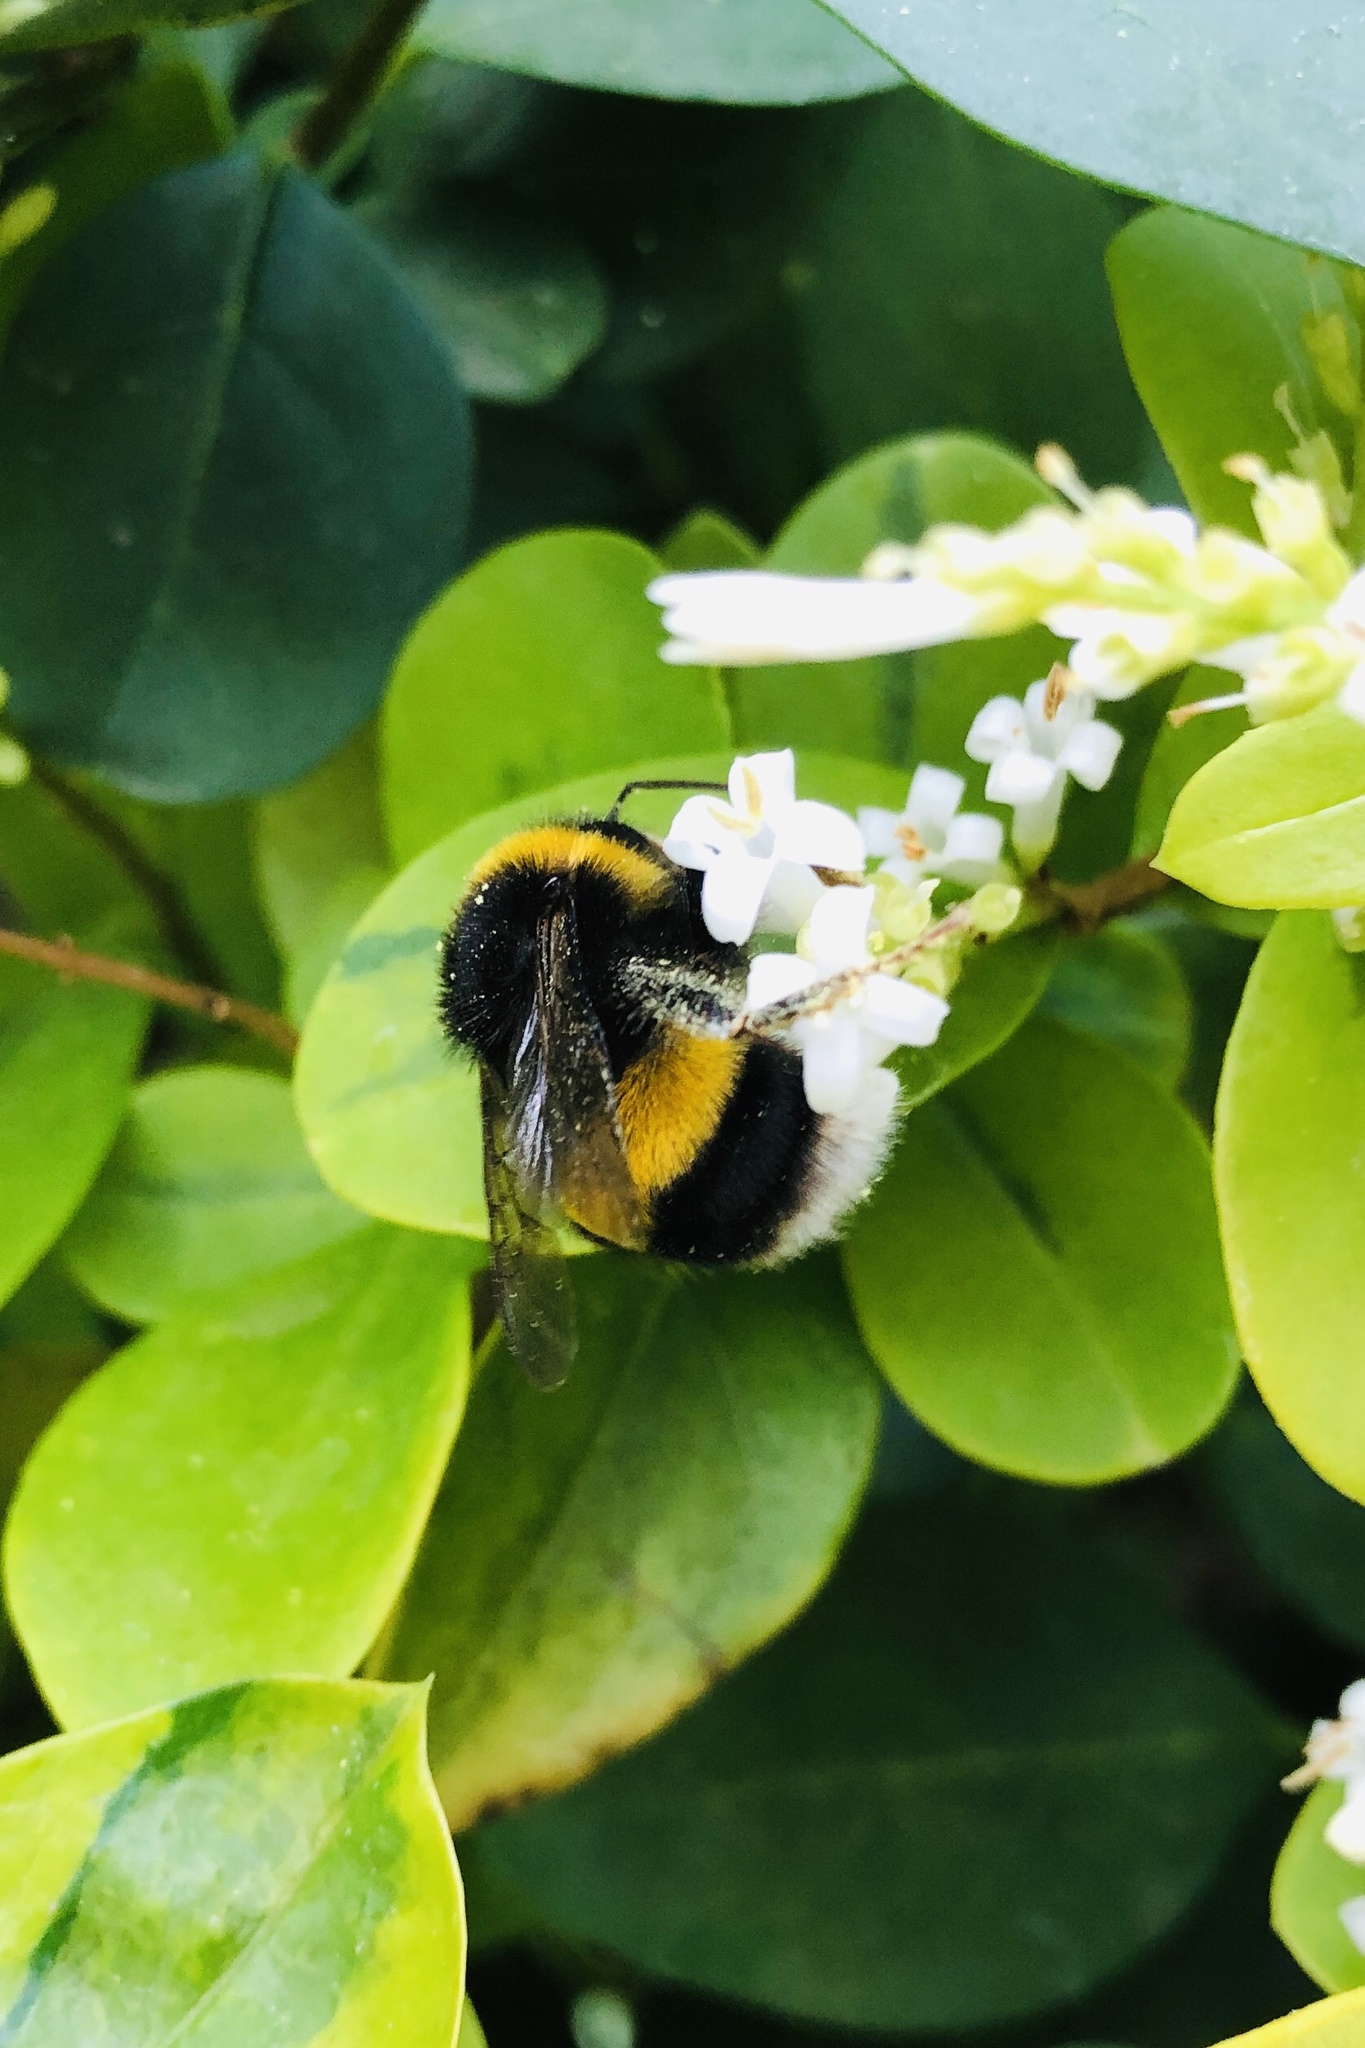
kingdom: Animalia
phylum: Arthropoda
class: Insecta
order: Hymenoptera
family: Apidae
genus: Bombus
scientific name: Bombus terrestris
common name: Buff-tailed bumblebee
